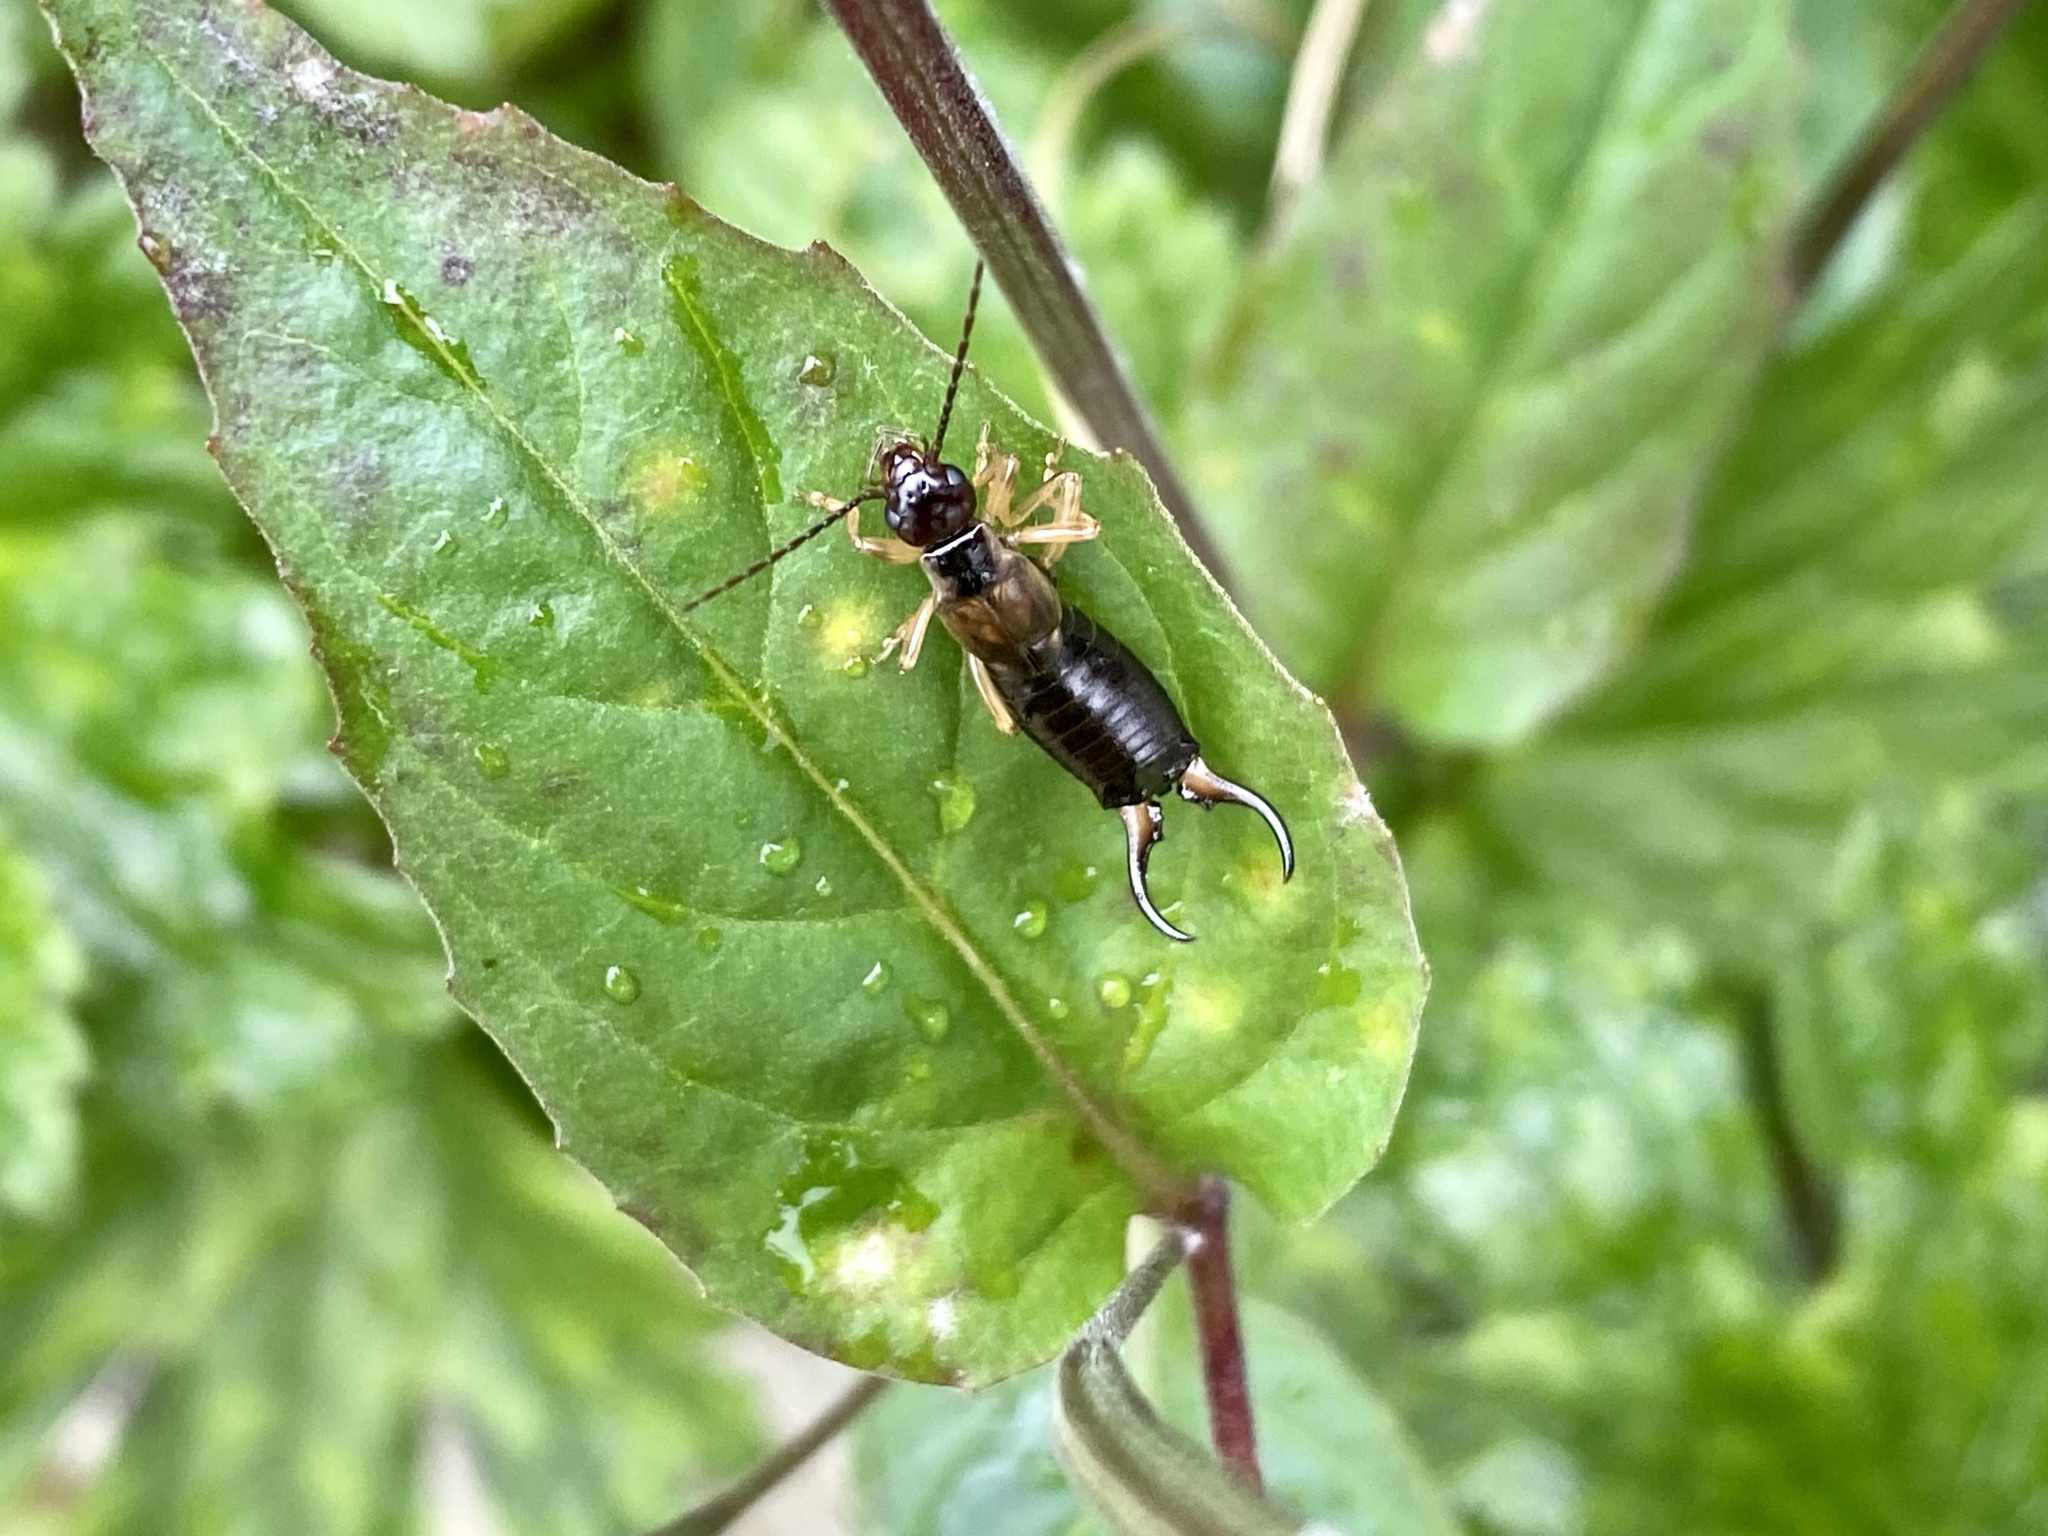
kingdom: Animalia
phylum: Arthropoda
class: Insecta
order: Dermaptera
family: Forficulidae
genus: Forficula
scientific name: Forficula
